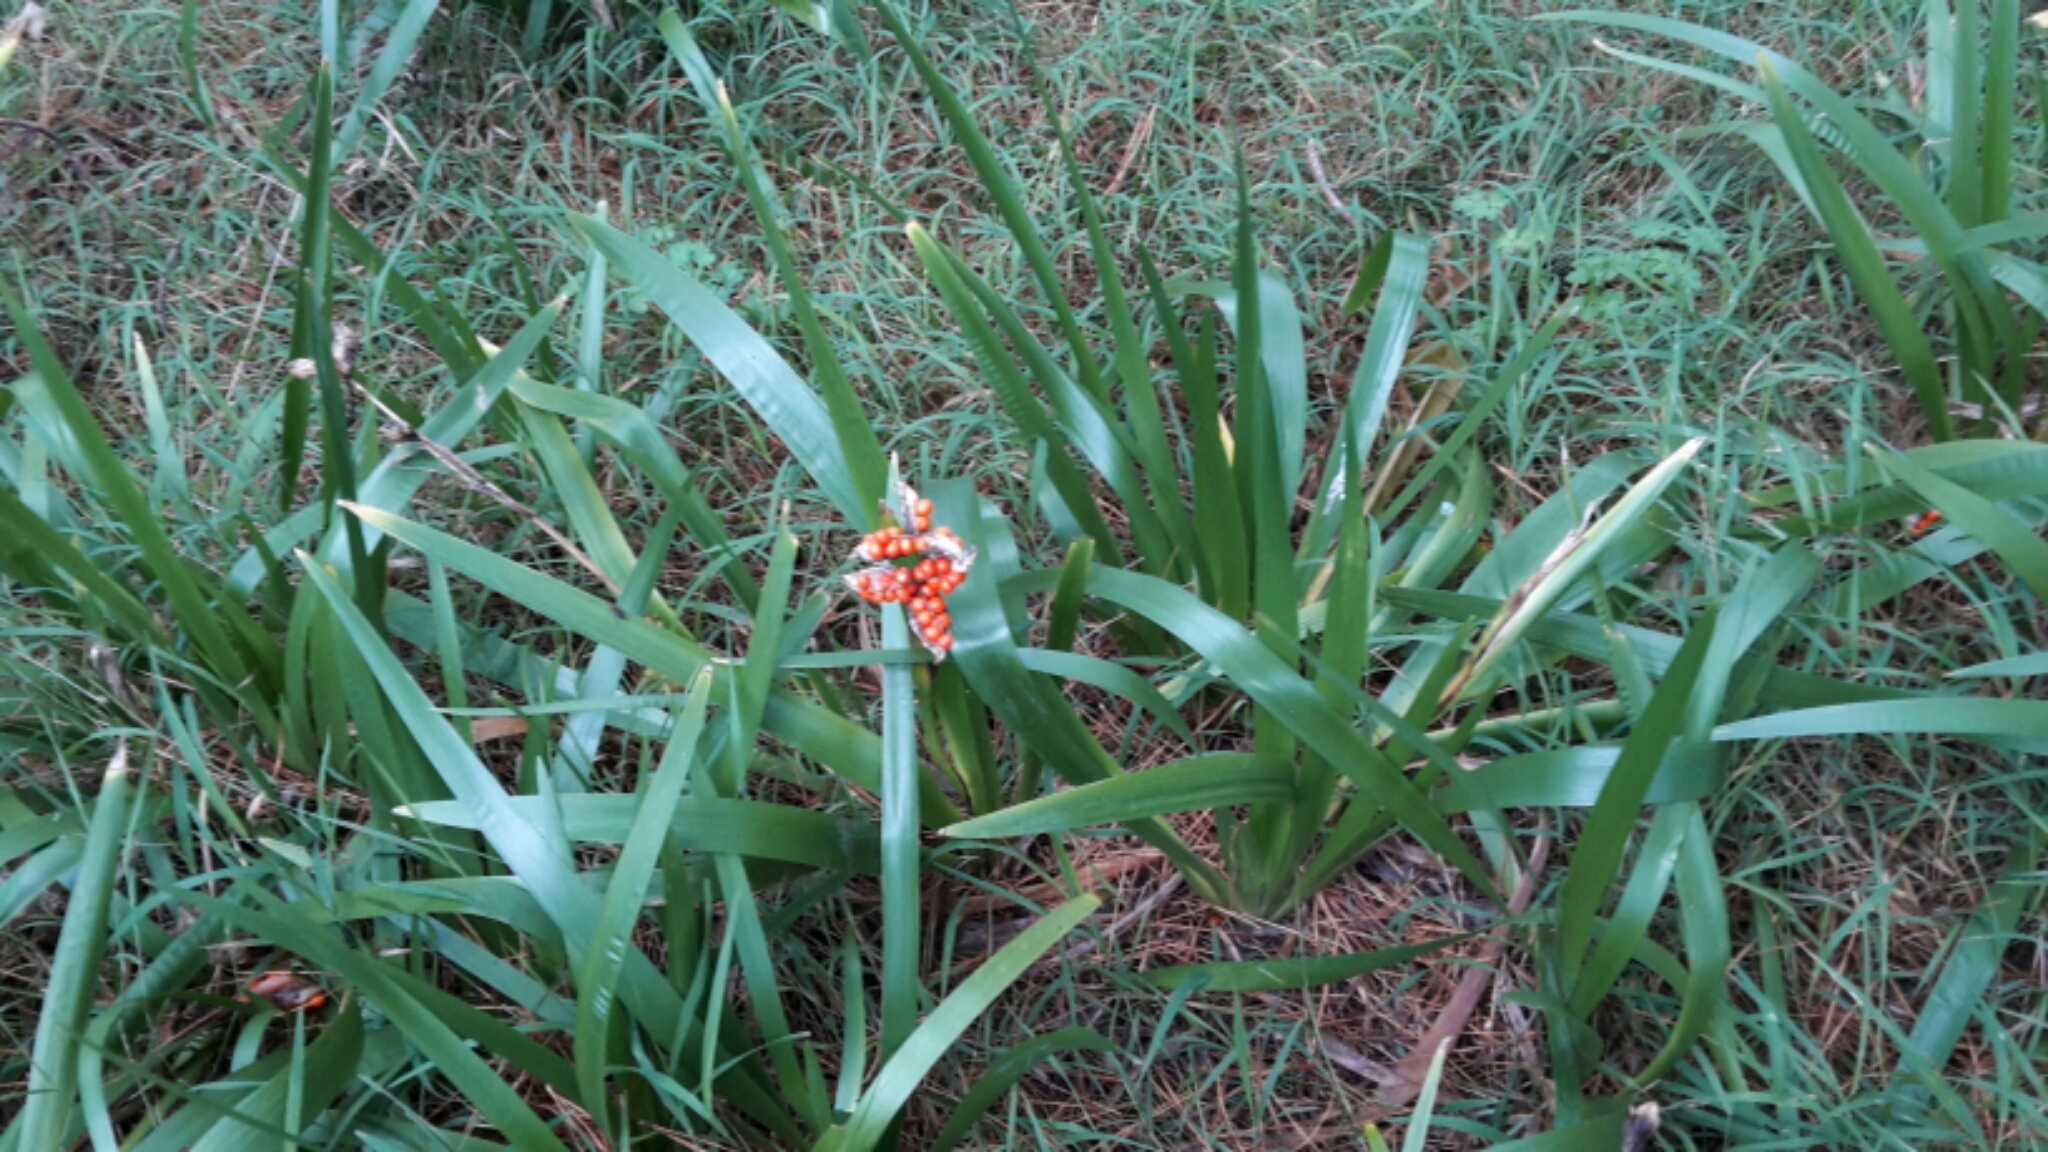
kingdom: Plantae
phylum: Tracheophyta
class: Liliopsida
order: Asparagales
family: Iridaceae
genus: Iris
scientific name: Iris foetidissima
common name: Stinking iris
